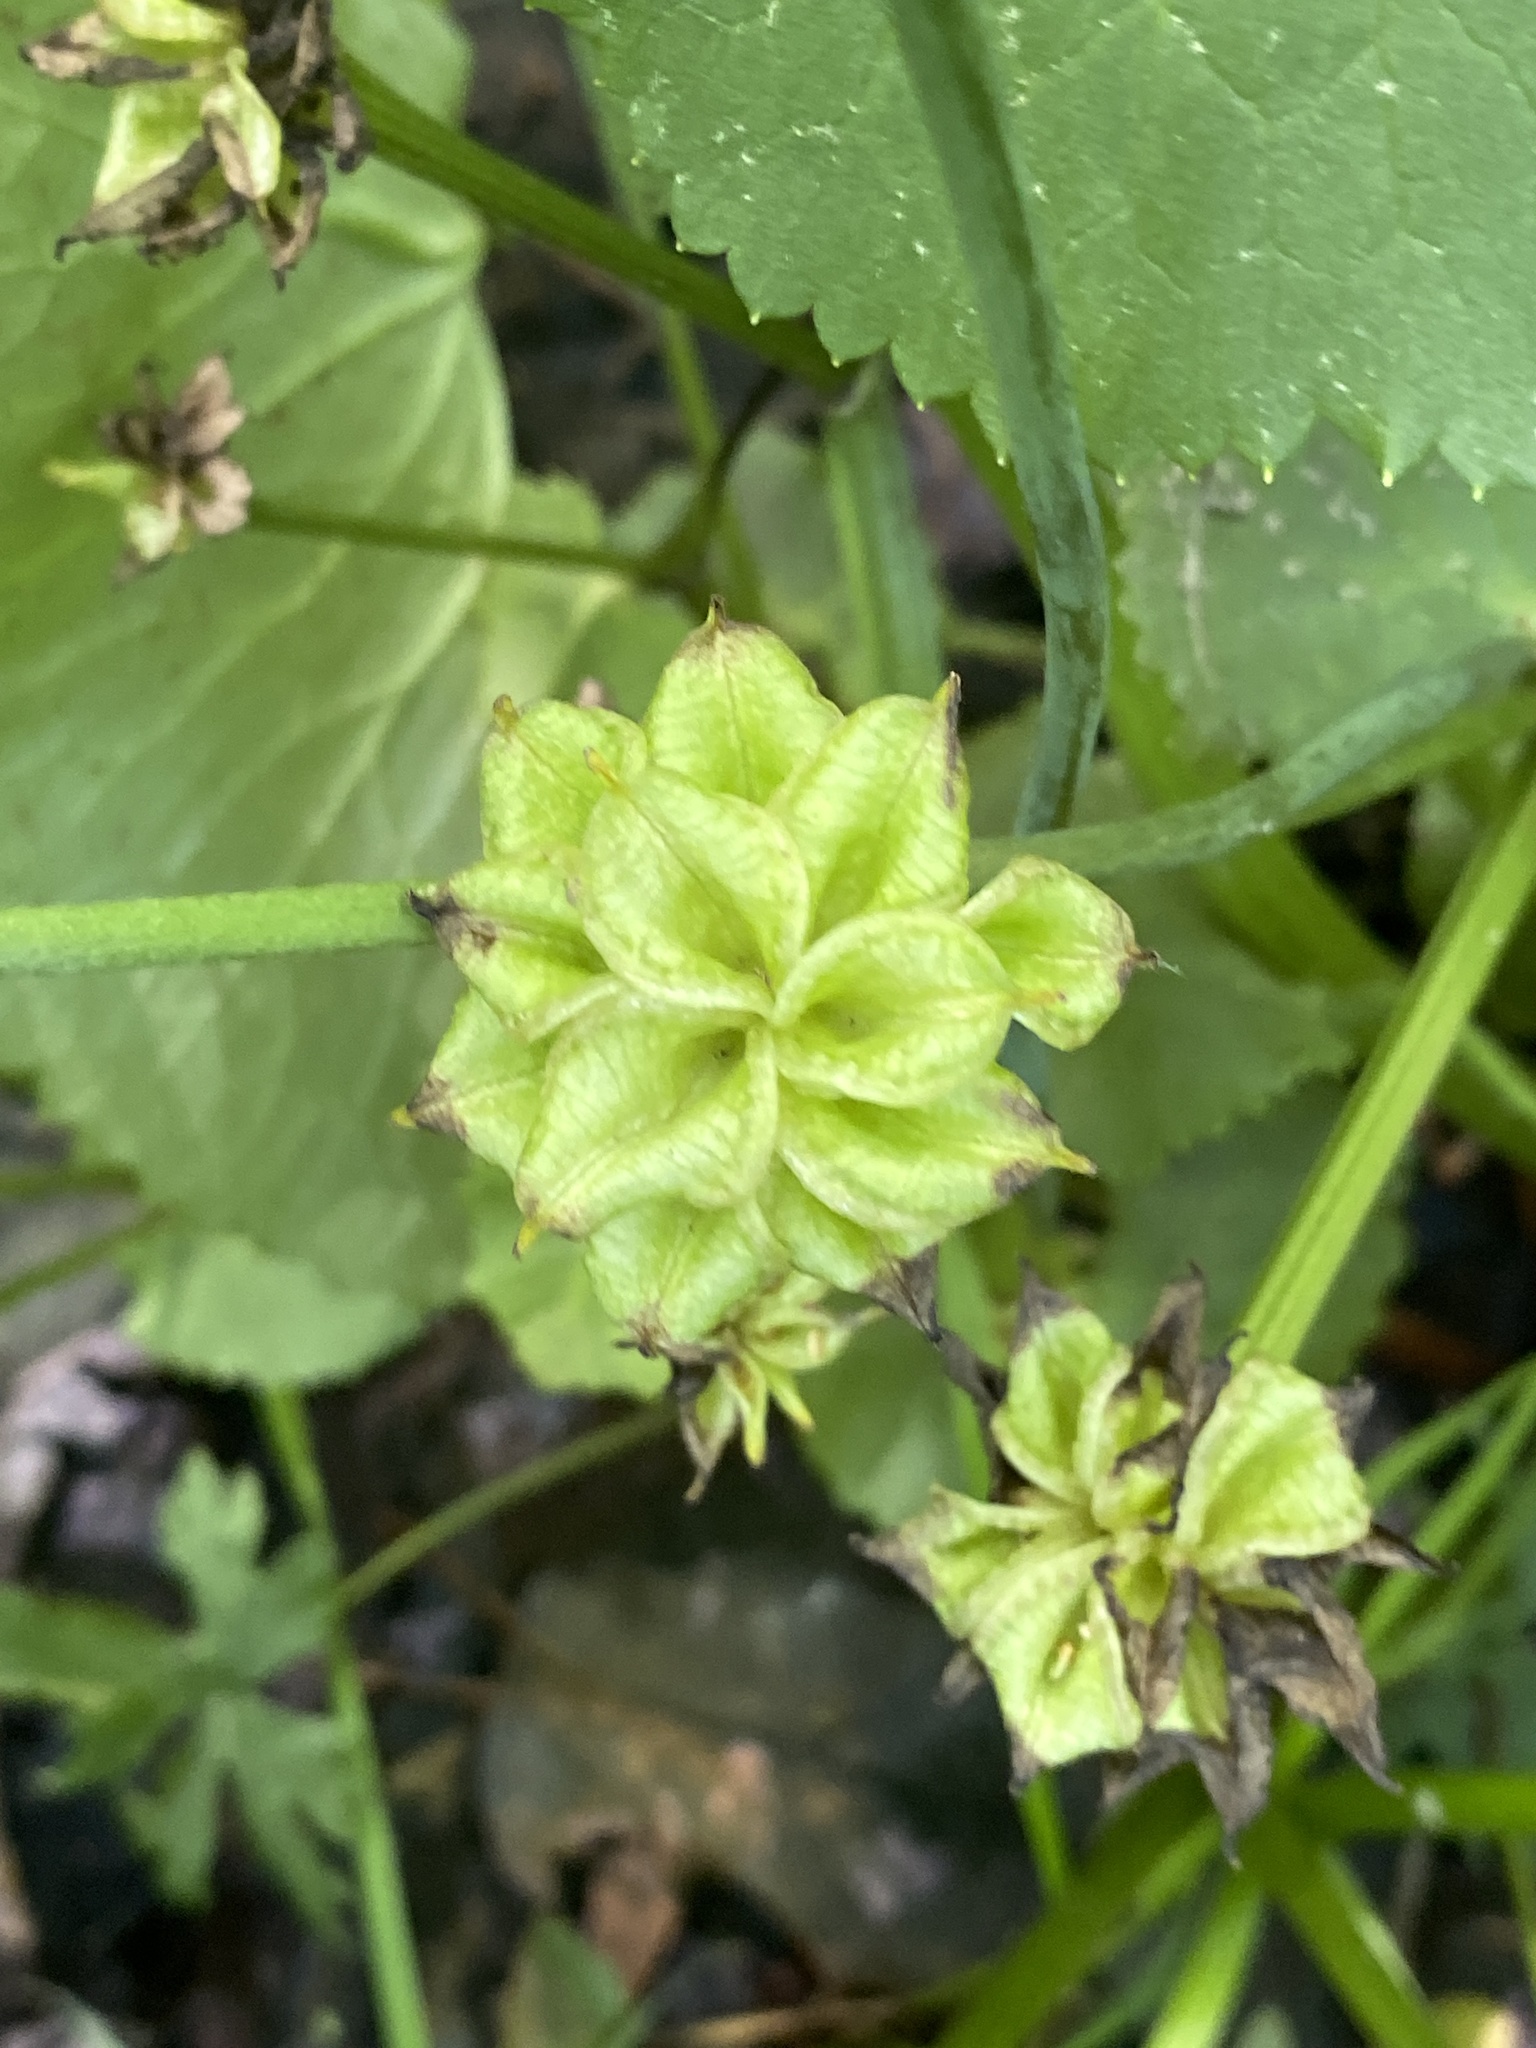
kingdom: Plantae
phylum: Tracheophyta
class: Magnoliopsida
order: Ranunculales
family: Ranunculaceae
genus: Caltha
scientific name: Caltha palustris
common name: Marsh marigold
